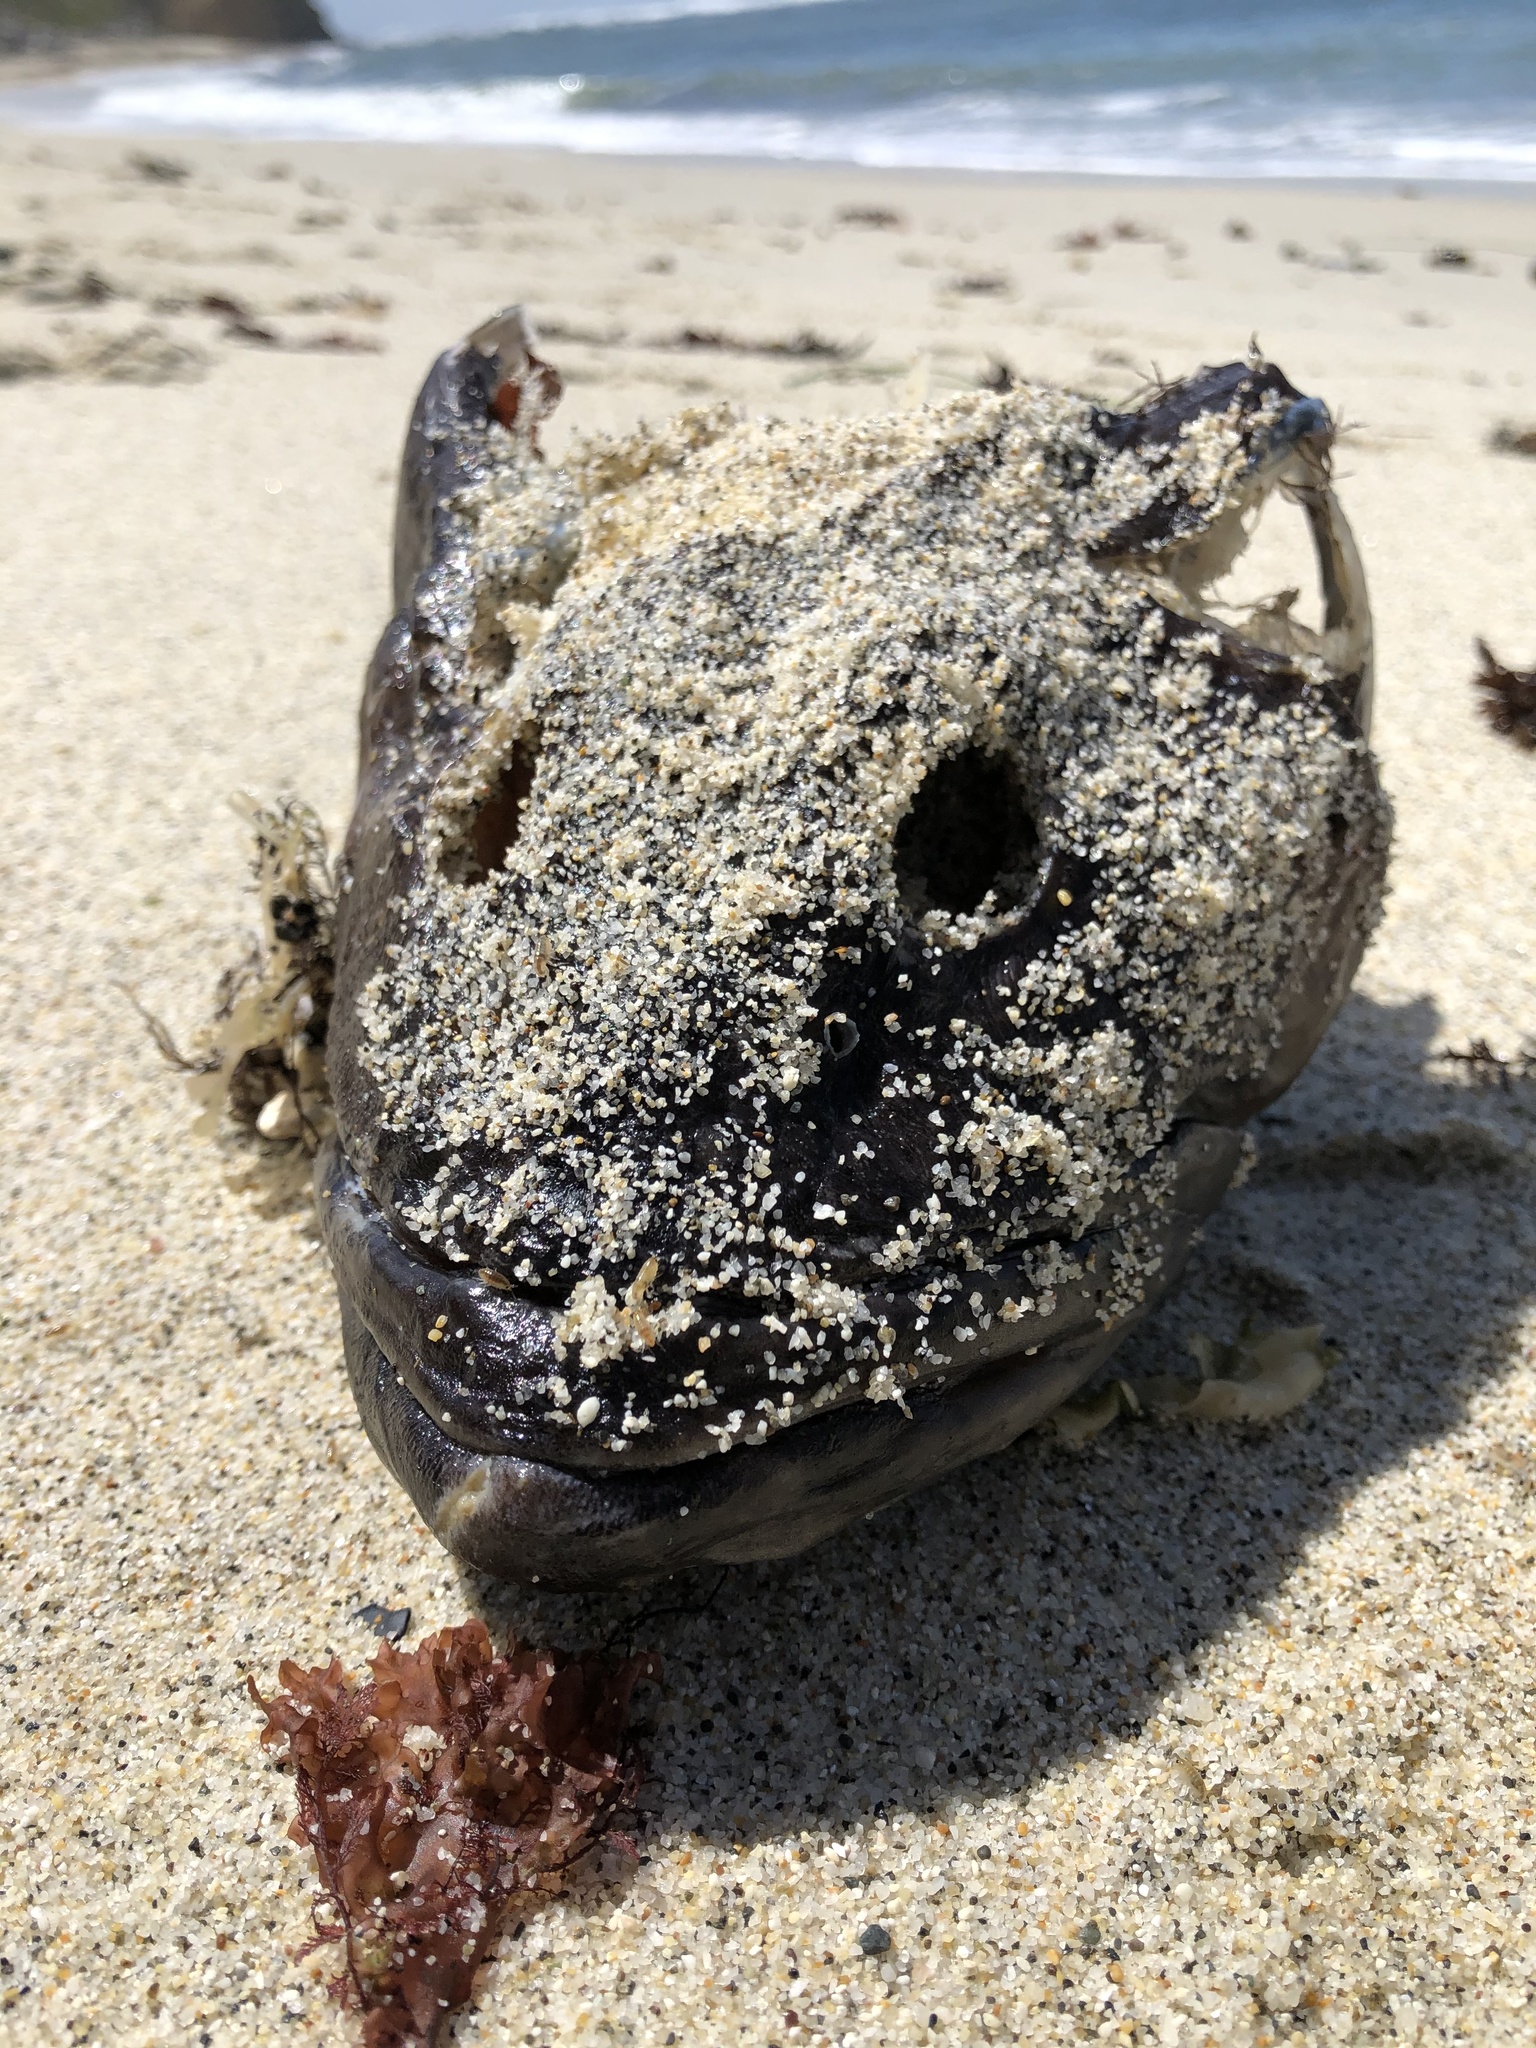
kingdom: Animalia
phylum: Chordata
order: Scorpaeniformes
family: Hexagrammidae
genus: Ophiodon
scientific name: Ophiodon elongatus
